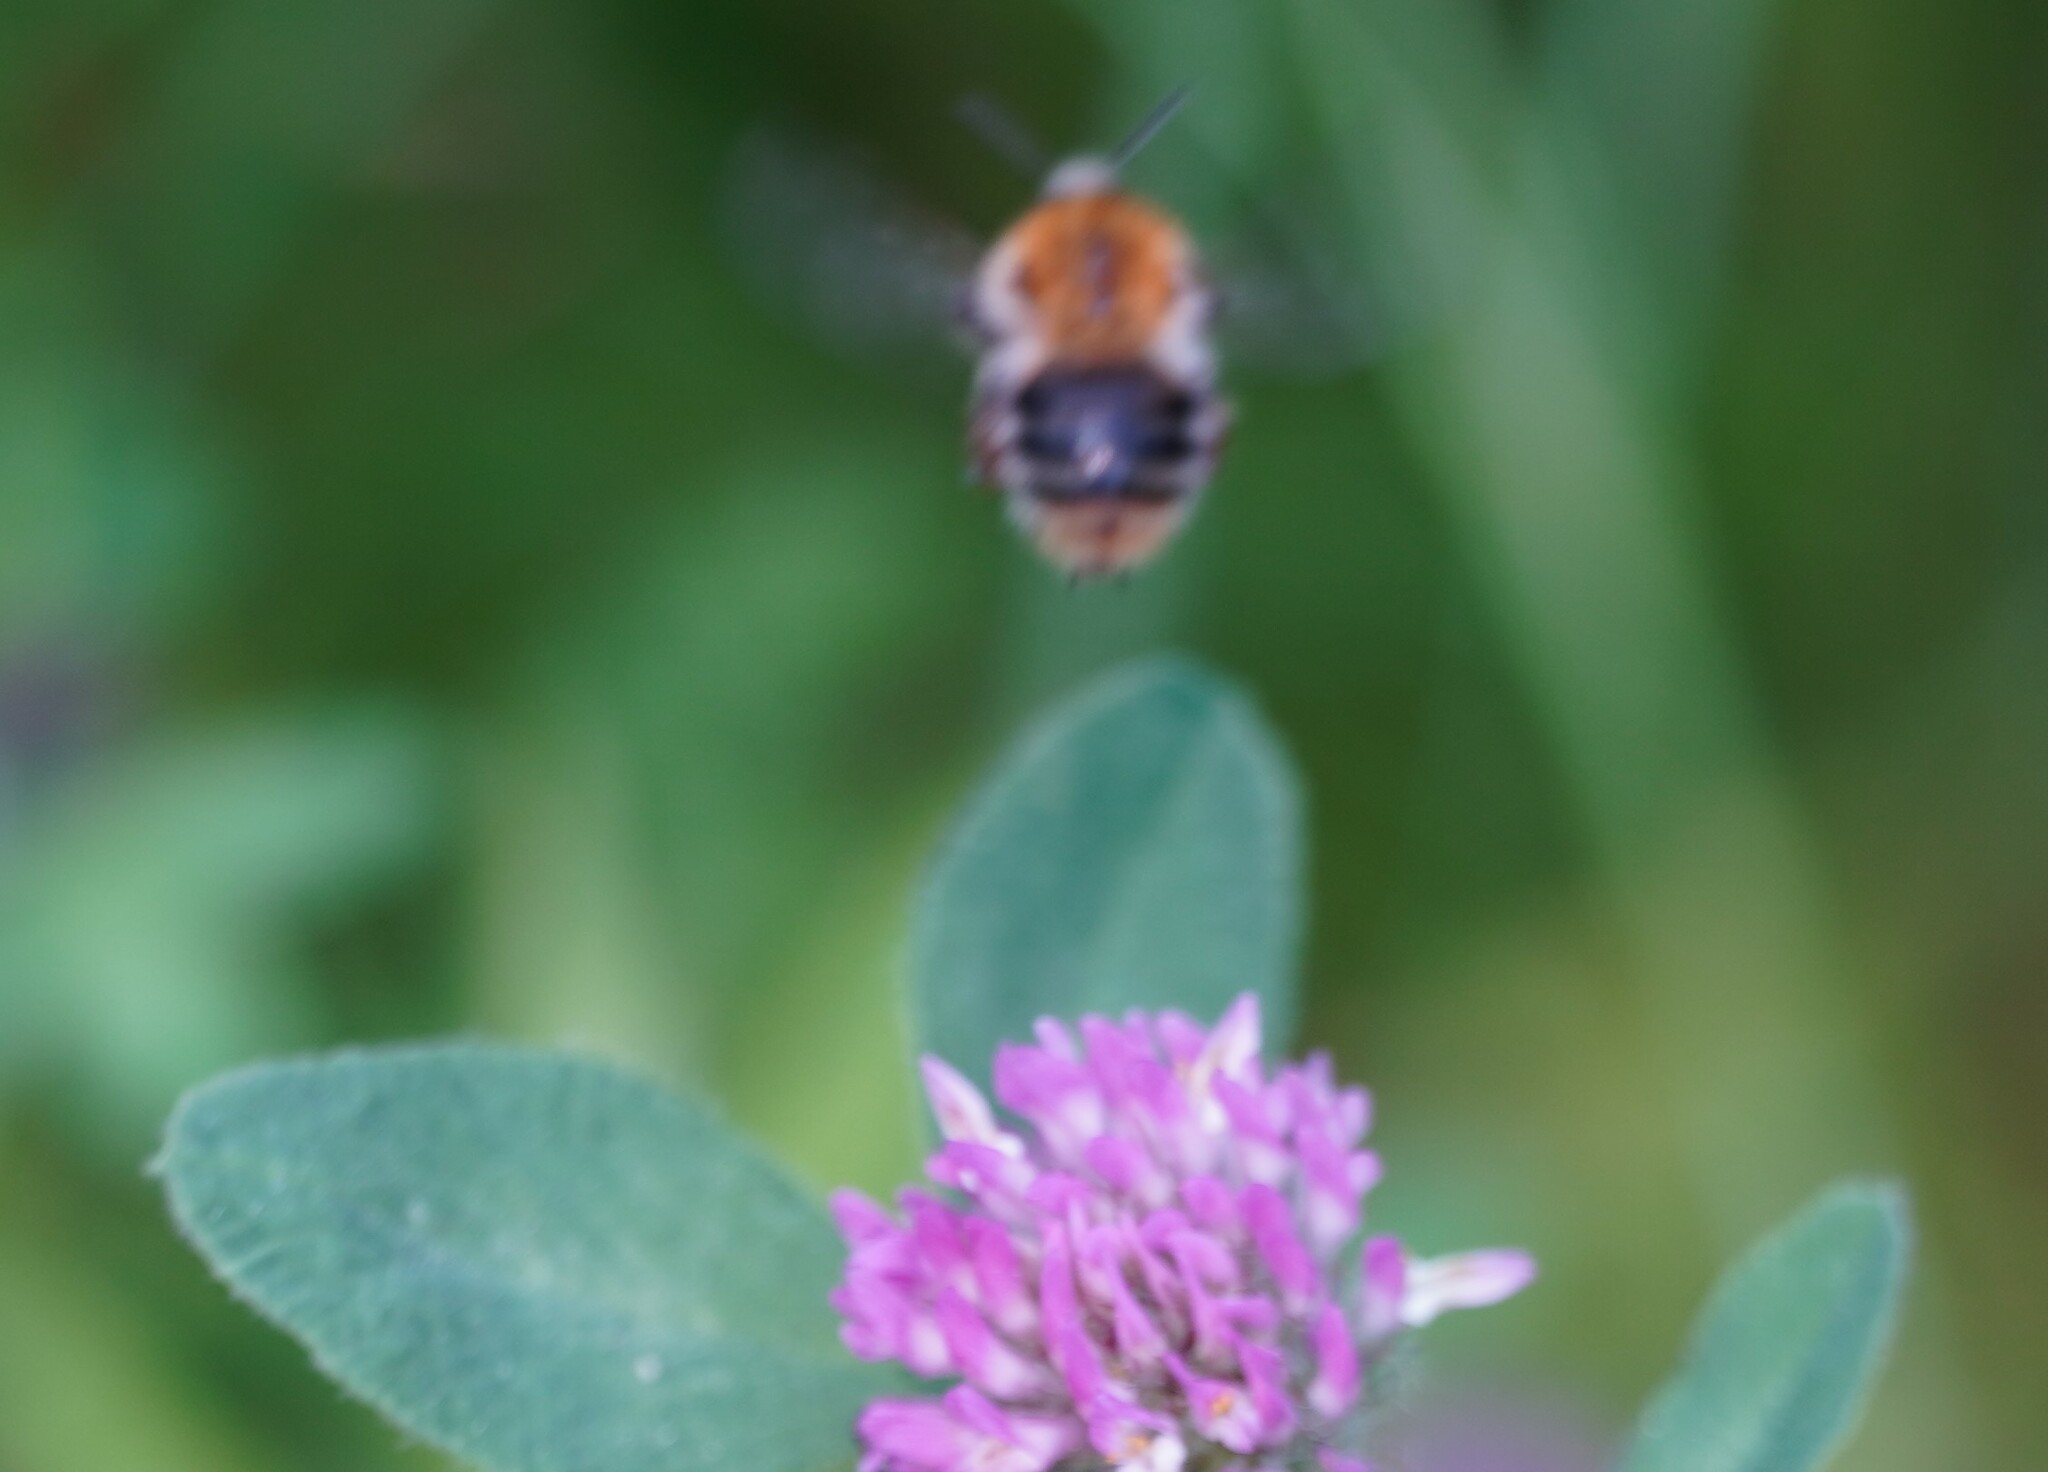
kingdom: Animalia
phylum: Arthropoda
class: Insecta
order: Hymenoptera
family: Apidae
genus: Bombus
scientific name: Bombus pascuorum
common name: Common carder bee
